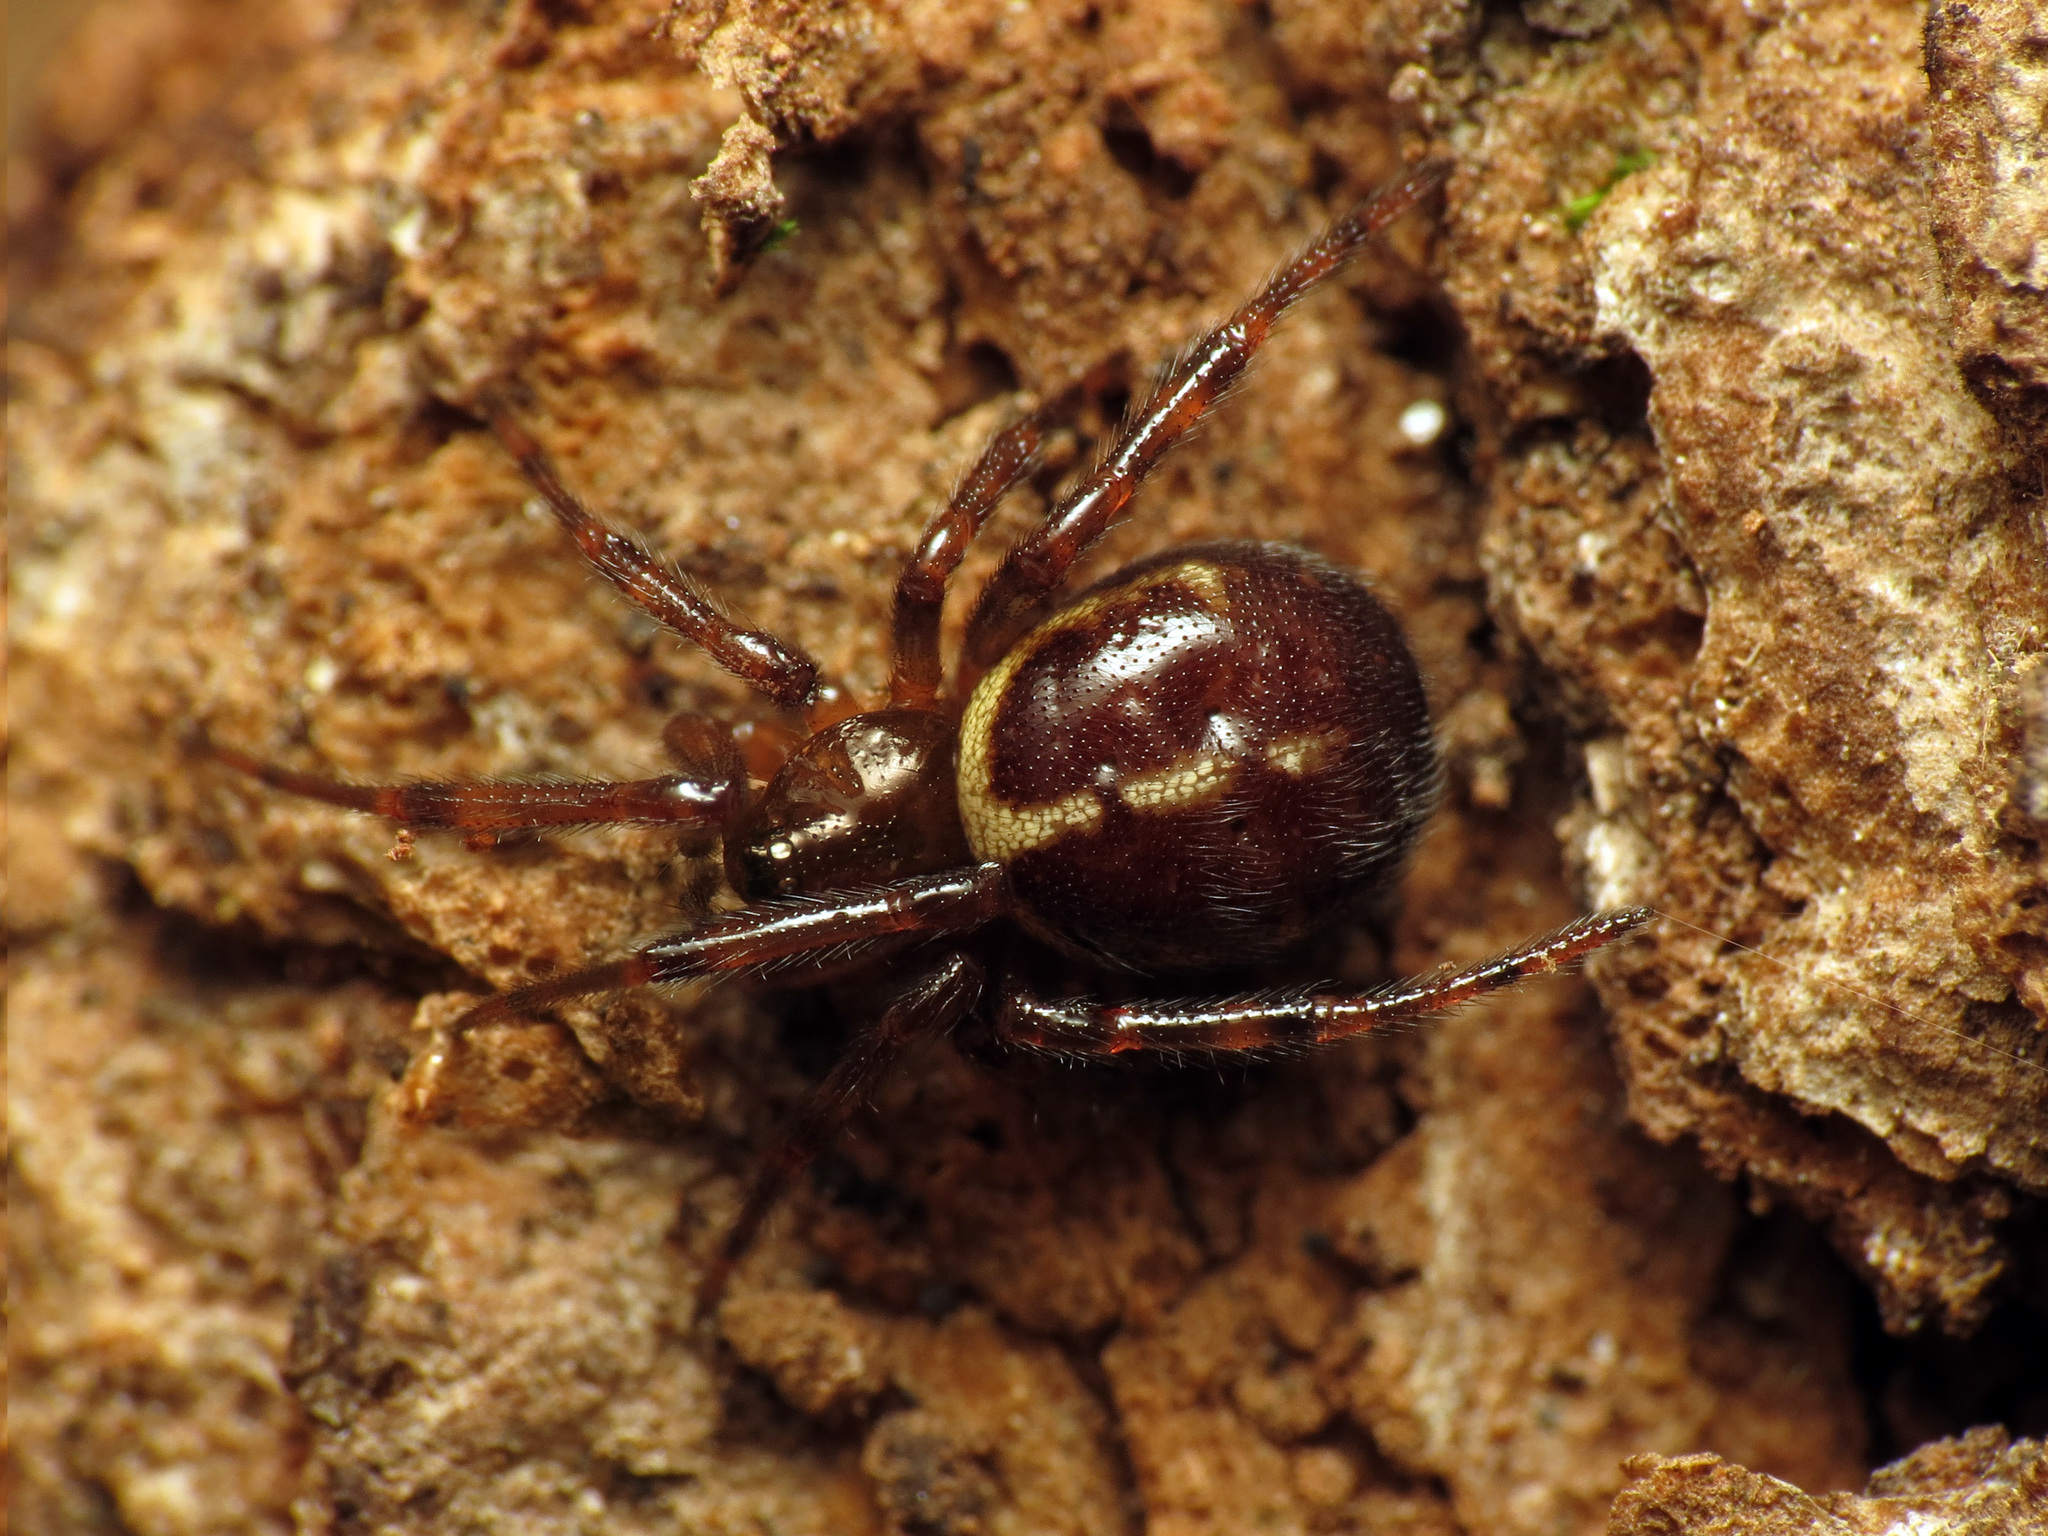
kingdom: Animalia
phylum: Arthropoda
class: Arachnida
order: Araneae
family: Theridiidae
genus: Steatoda
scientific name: Steatoda borealis
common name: Boreal combfoot
